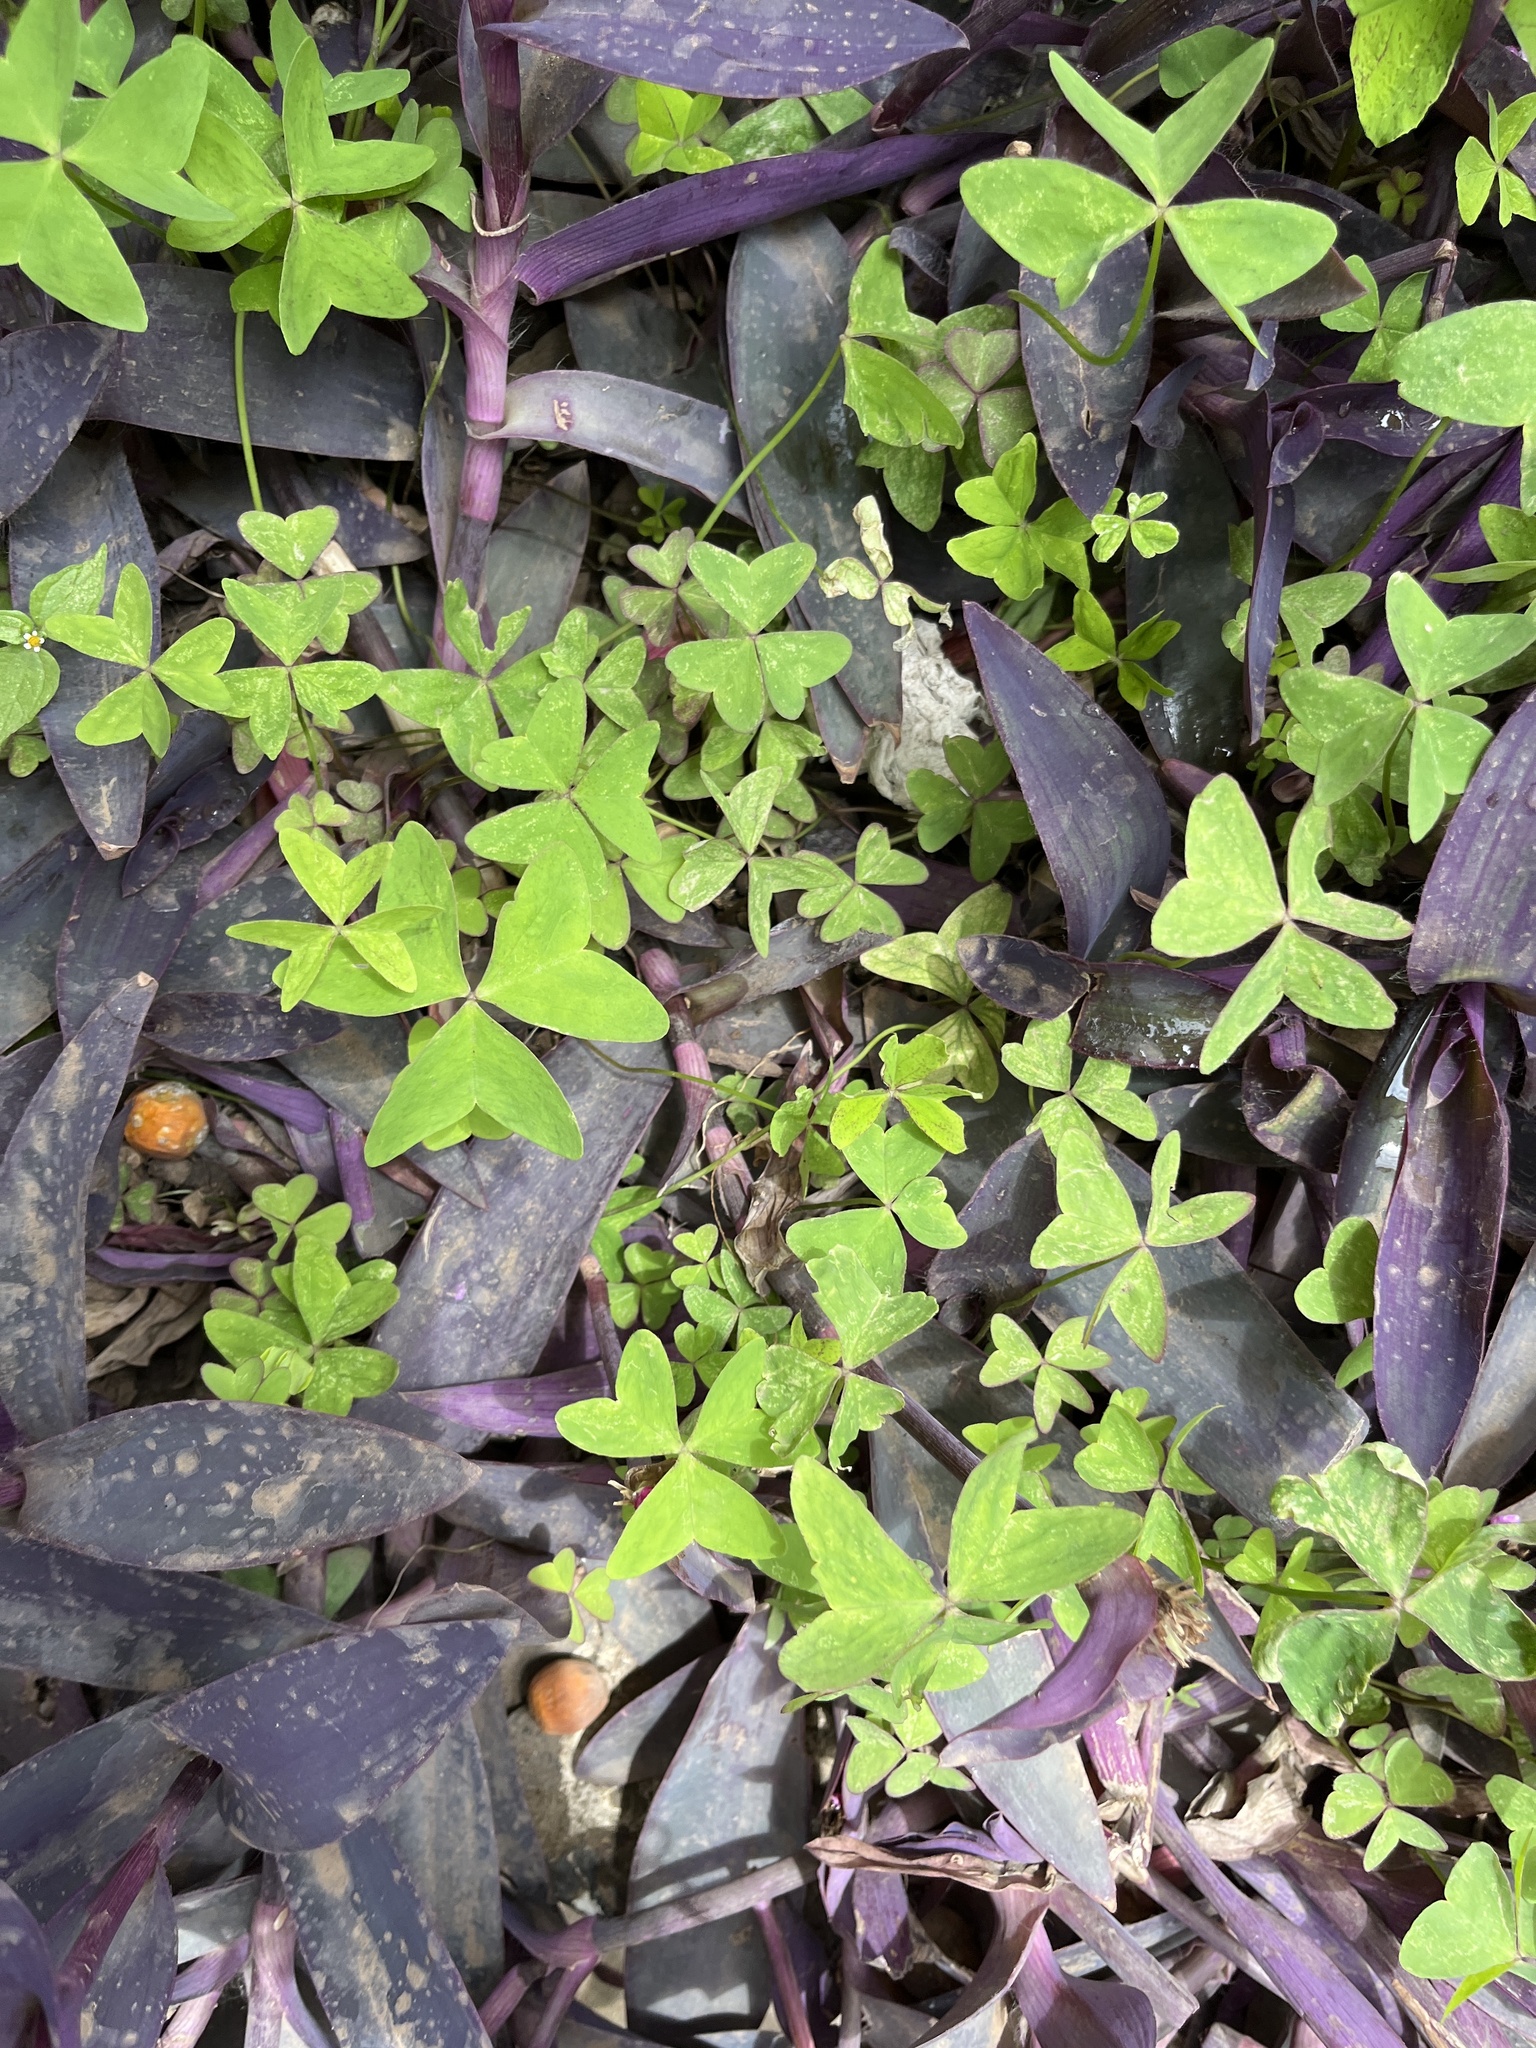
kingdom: Plantae
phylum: Tracheophyta
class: Magnoliopsida
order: Oxalidales
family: Oxalidaceae
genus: Oxalis
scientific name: Oxalis latifolia
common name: Garden pink-sorrel
